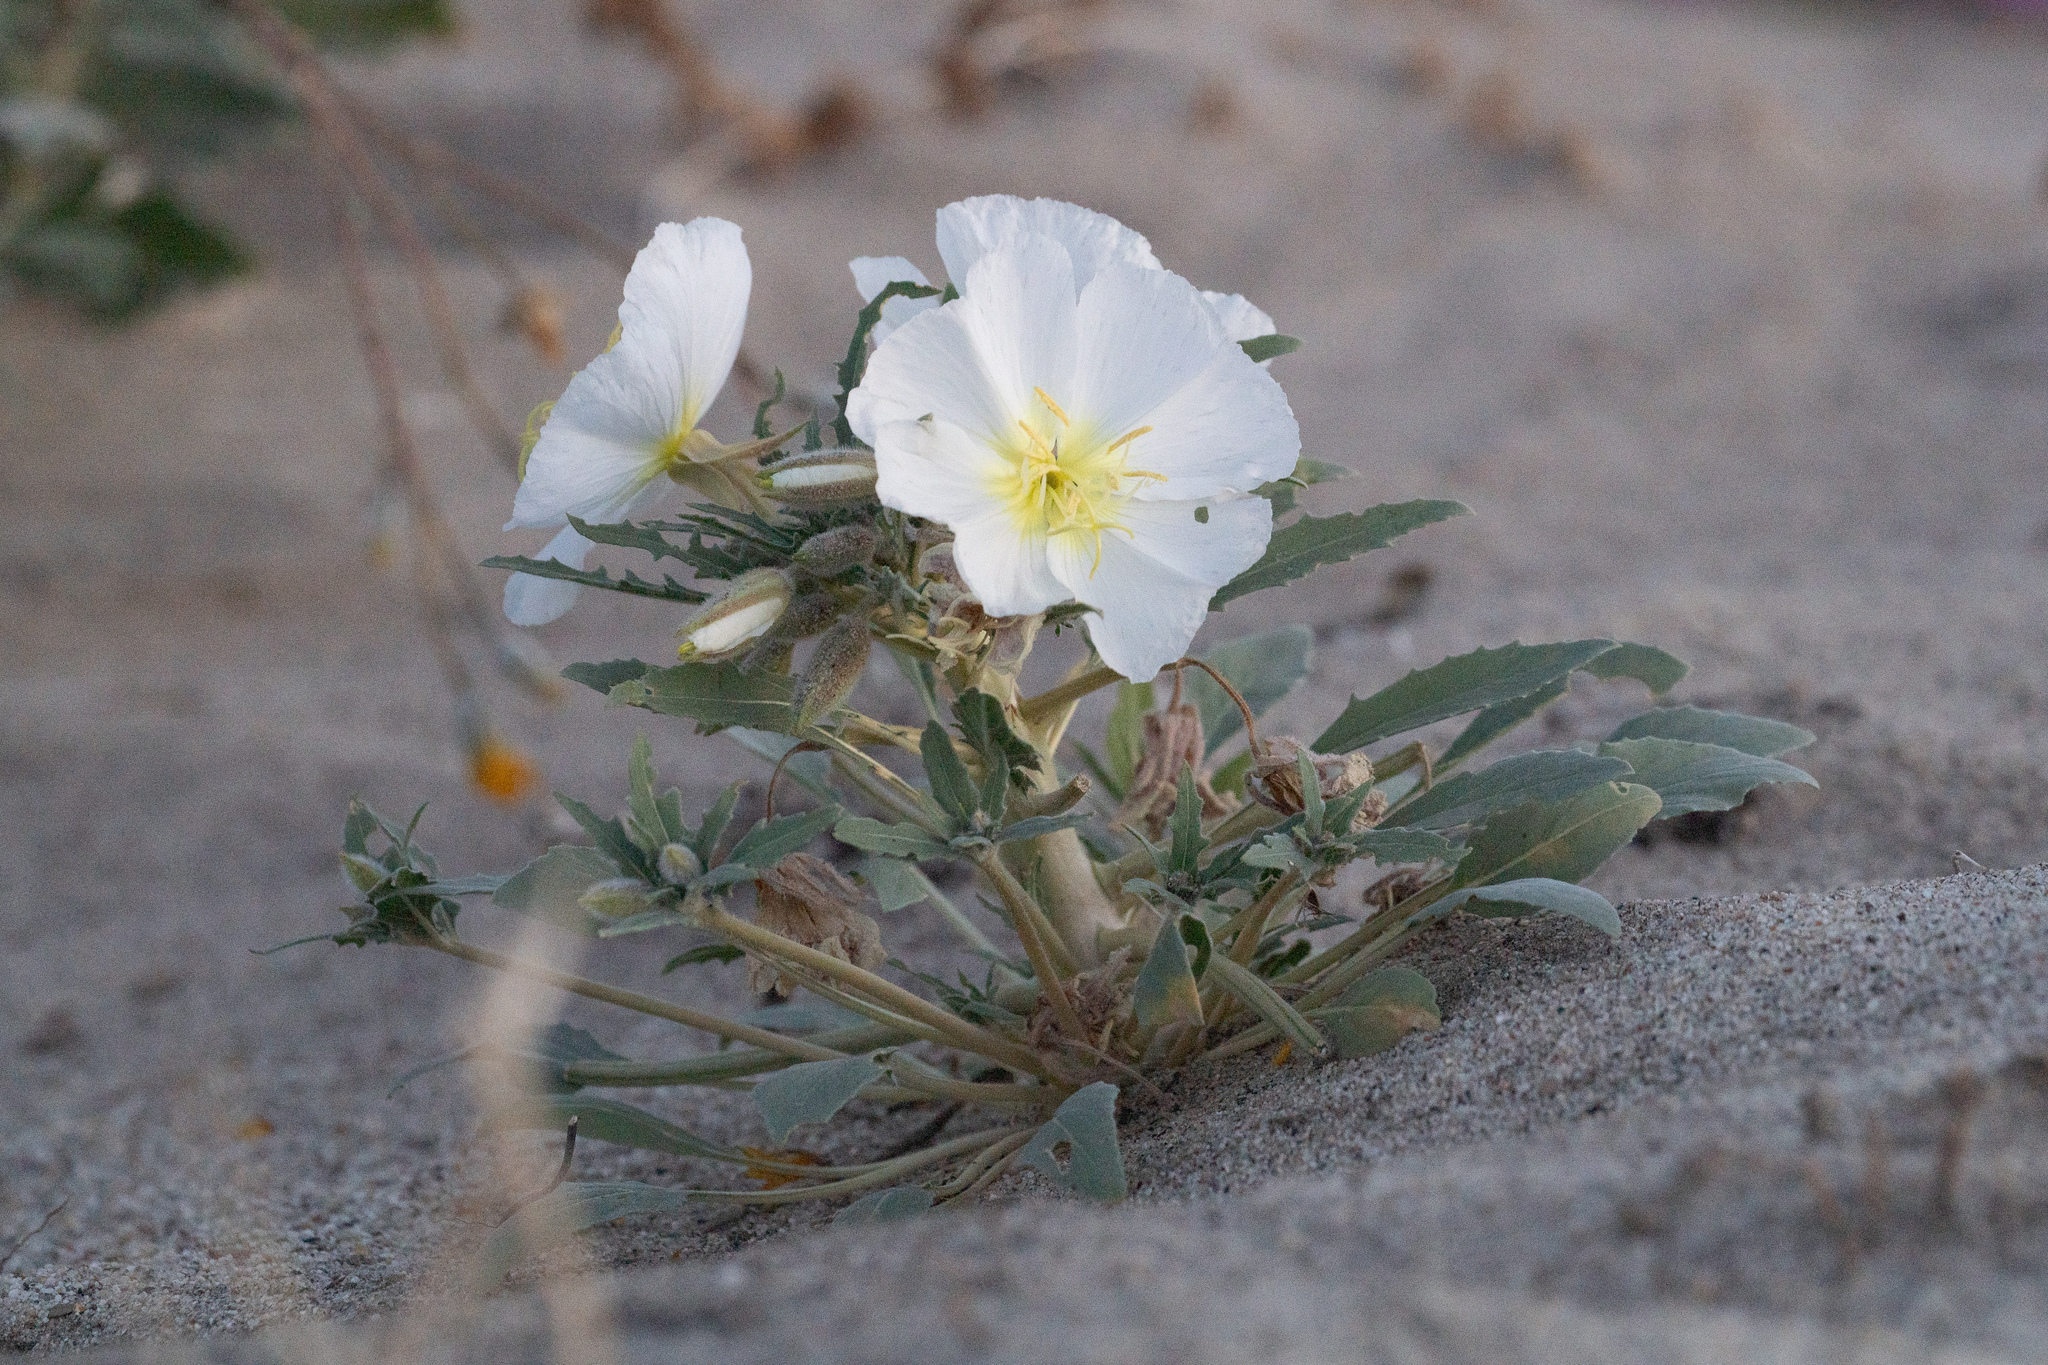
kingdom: Plantae
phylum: Tracheophyta
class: Magnoliopsida
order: Myrtales
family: Onagraceae
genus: Oenothera
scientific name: Oenothera deltoides
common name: Basket evening-primrose
